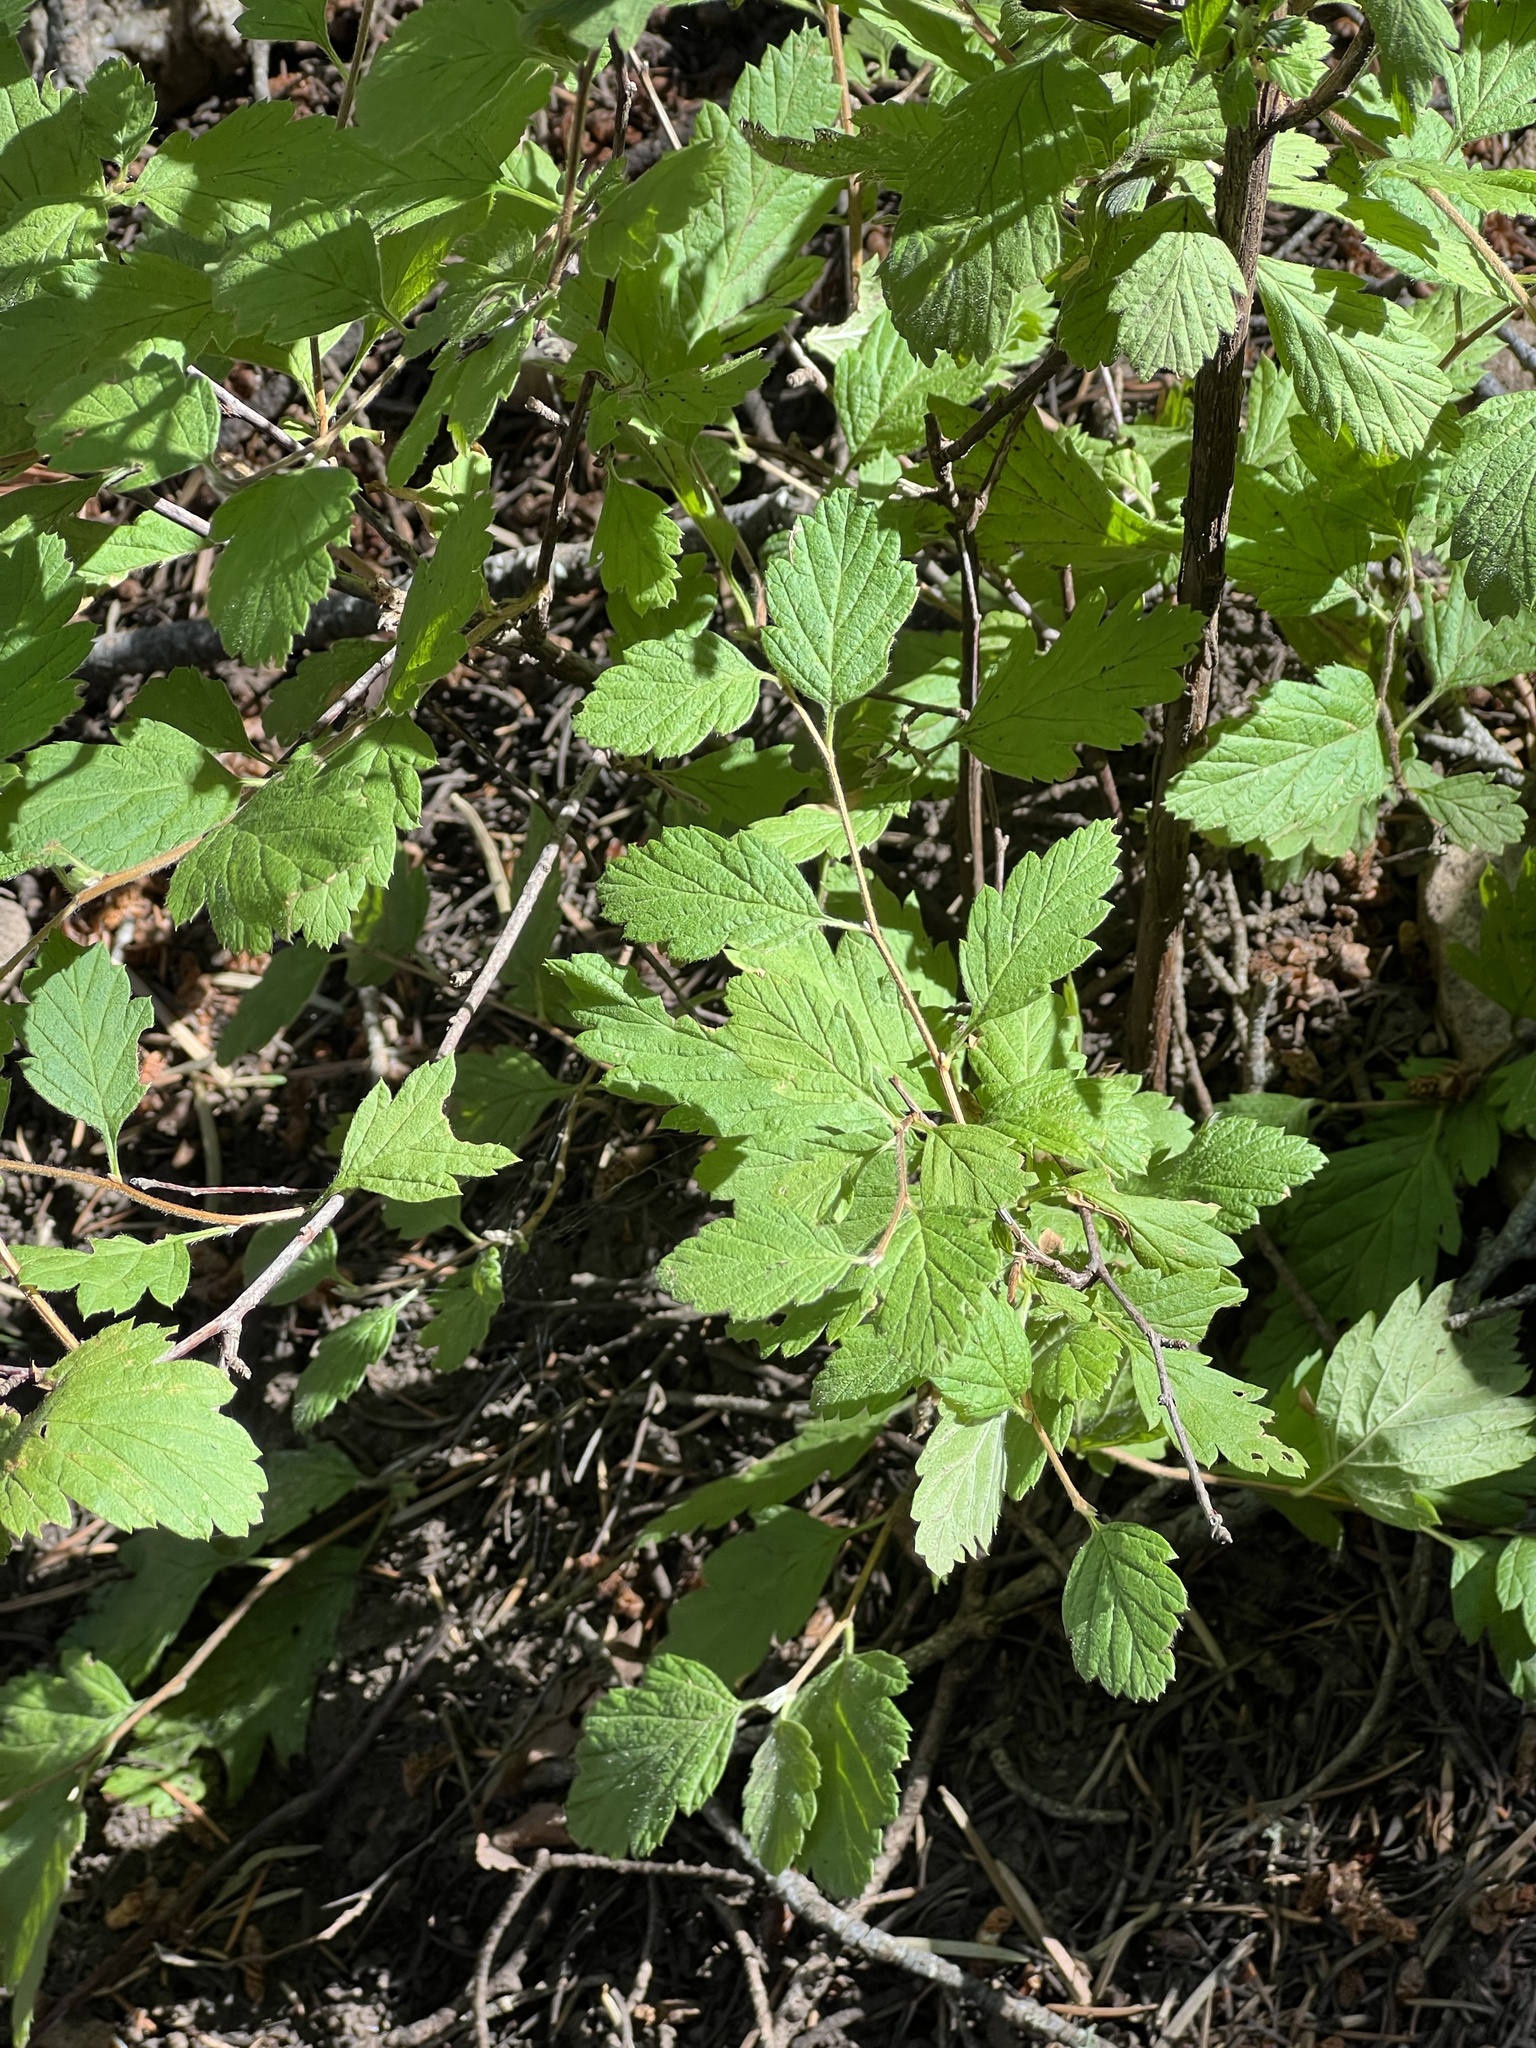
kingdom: Plantae
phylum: Tracheophyta
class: Magnoliopsida
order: Rosales
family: Rosaceae
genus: Holodiscus
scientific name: Holodiscus discolor
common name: Oceanspray
